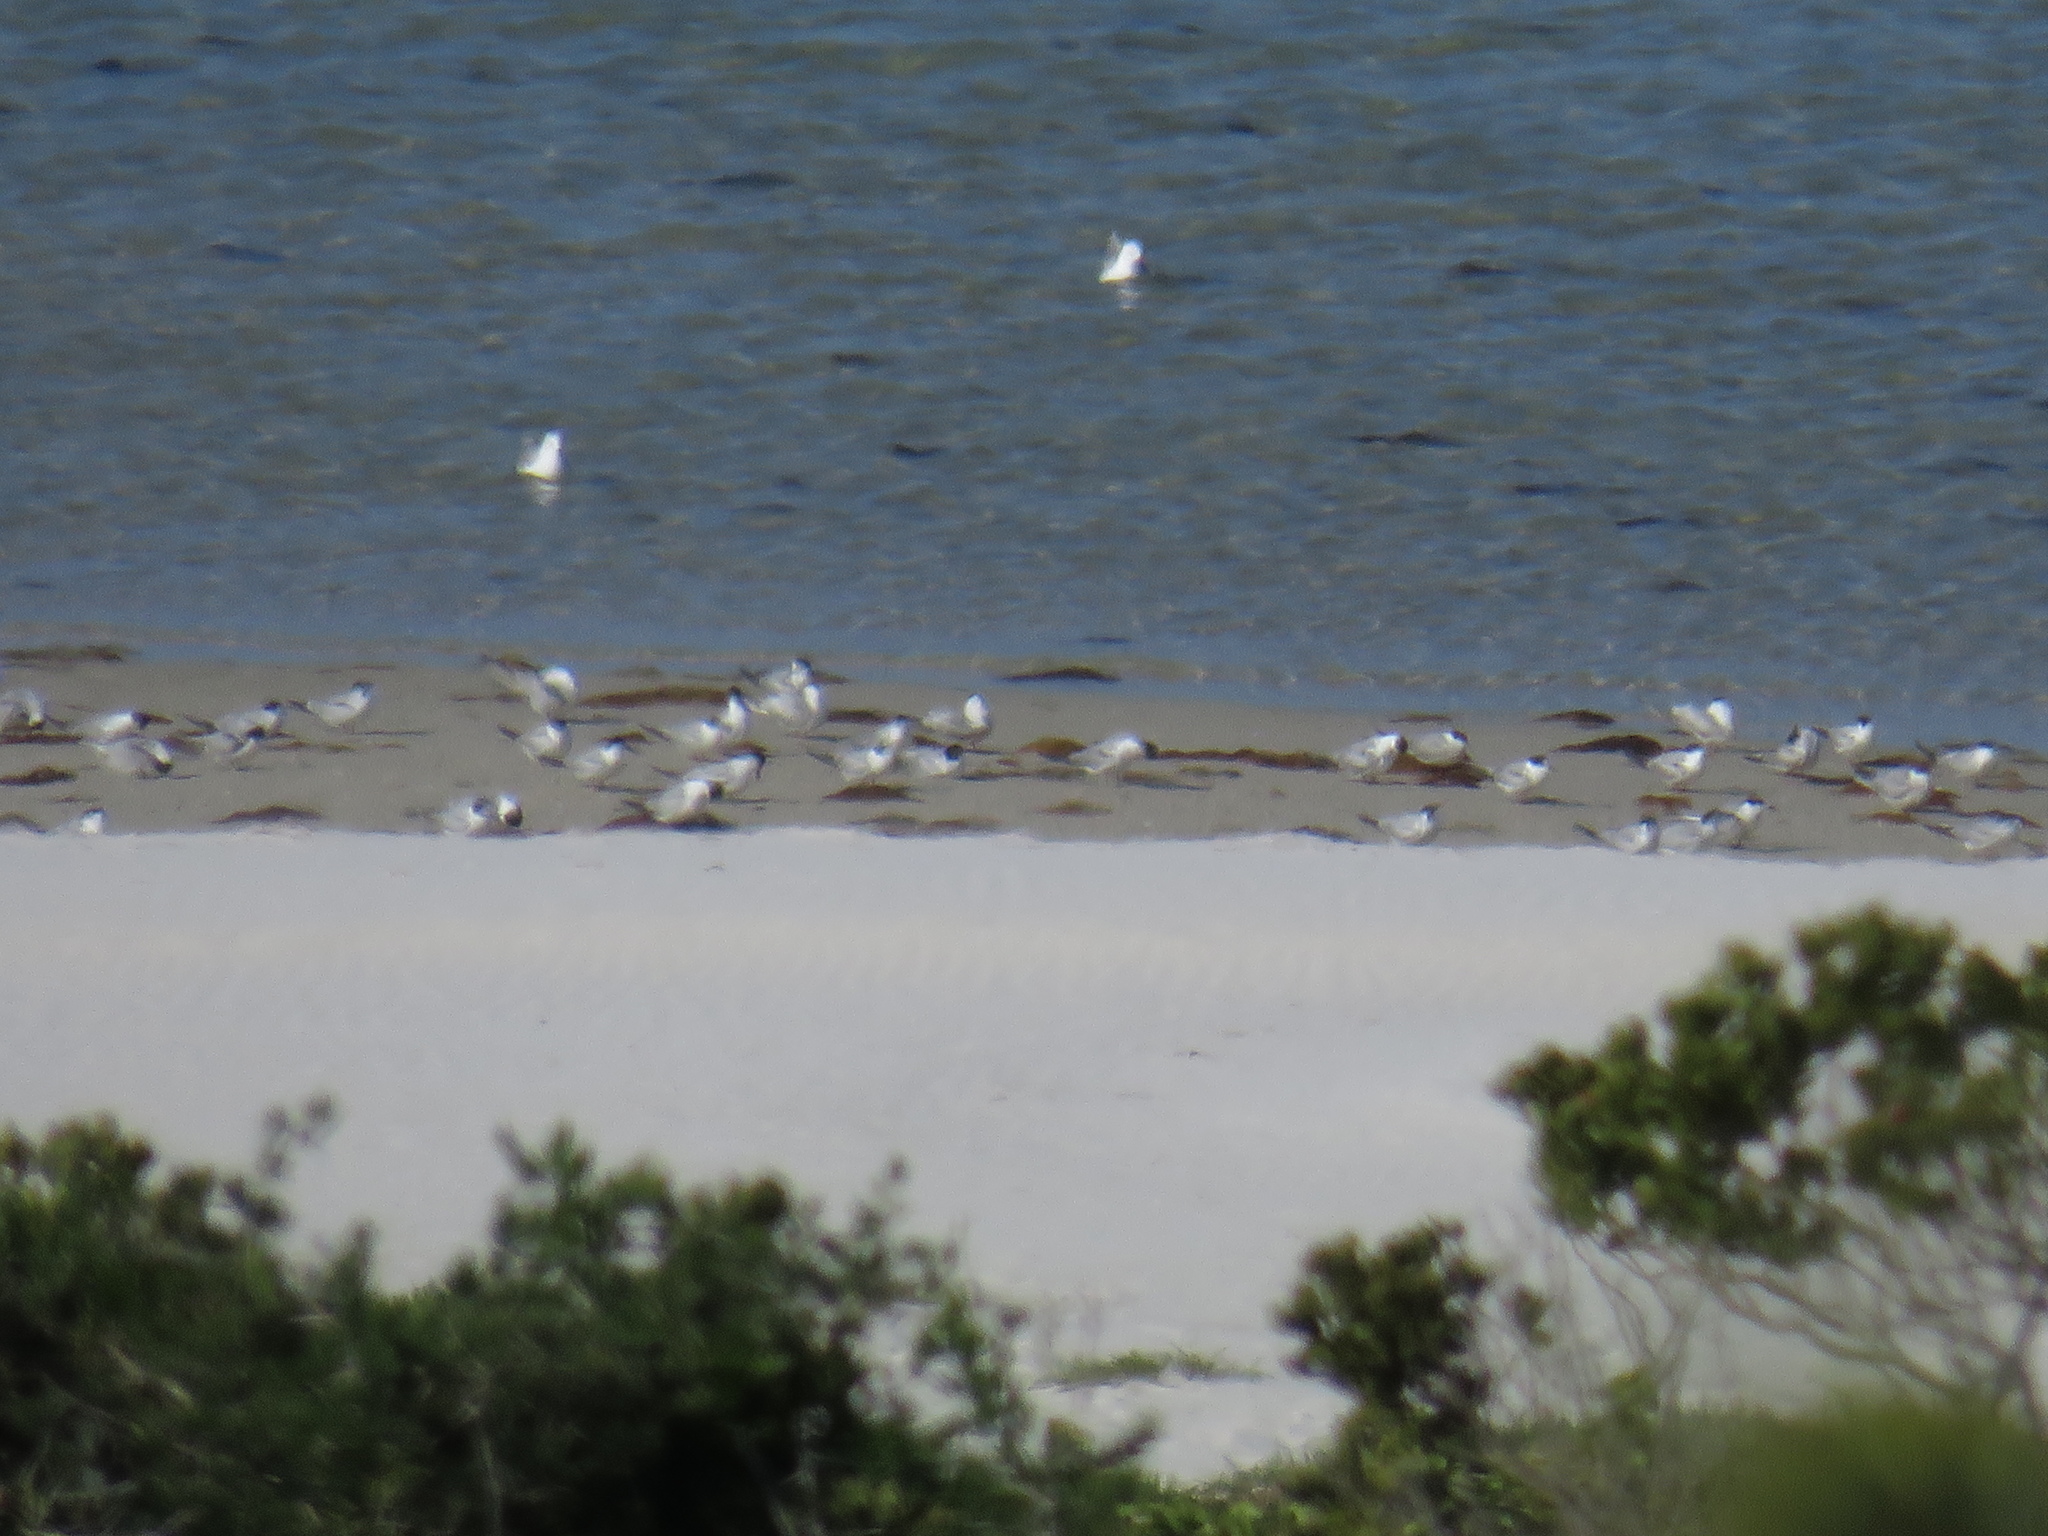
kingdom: Animalia
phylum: Chordata
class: Aves
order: Charadriiformes
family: Laridae
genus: Chroicocephalus
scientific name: Chroicocephalus hartlaubii
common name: Hartlaub's gull
